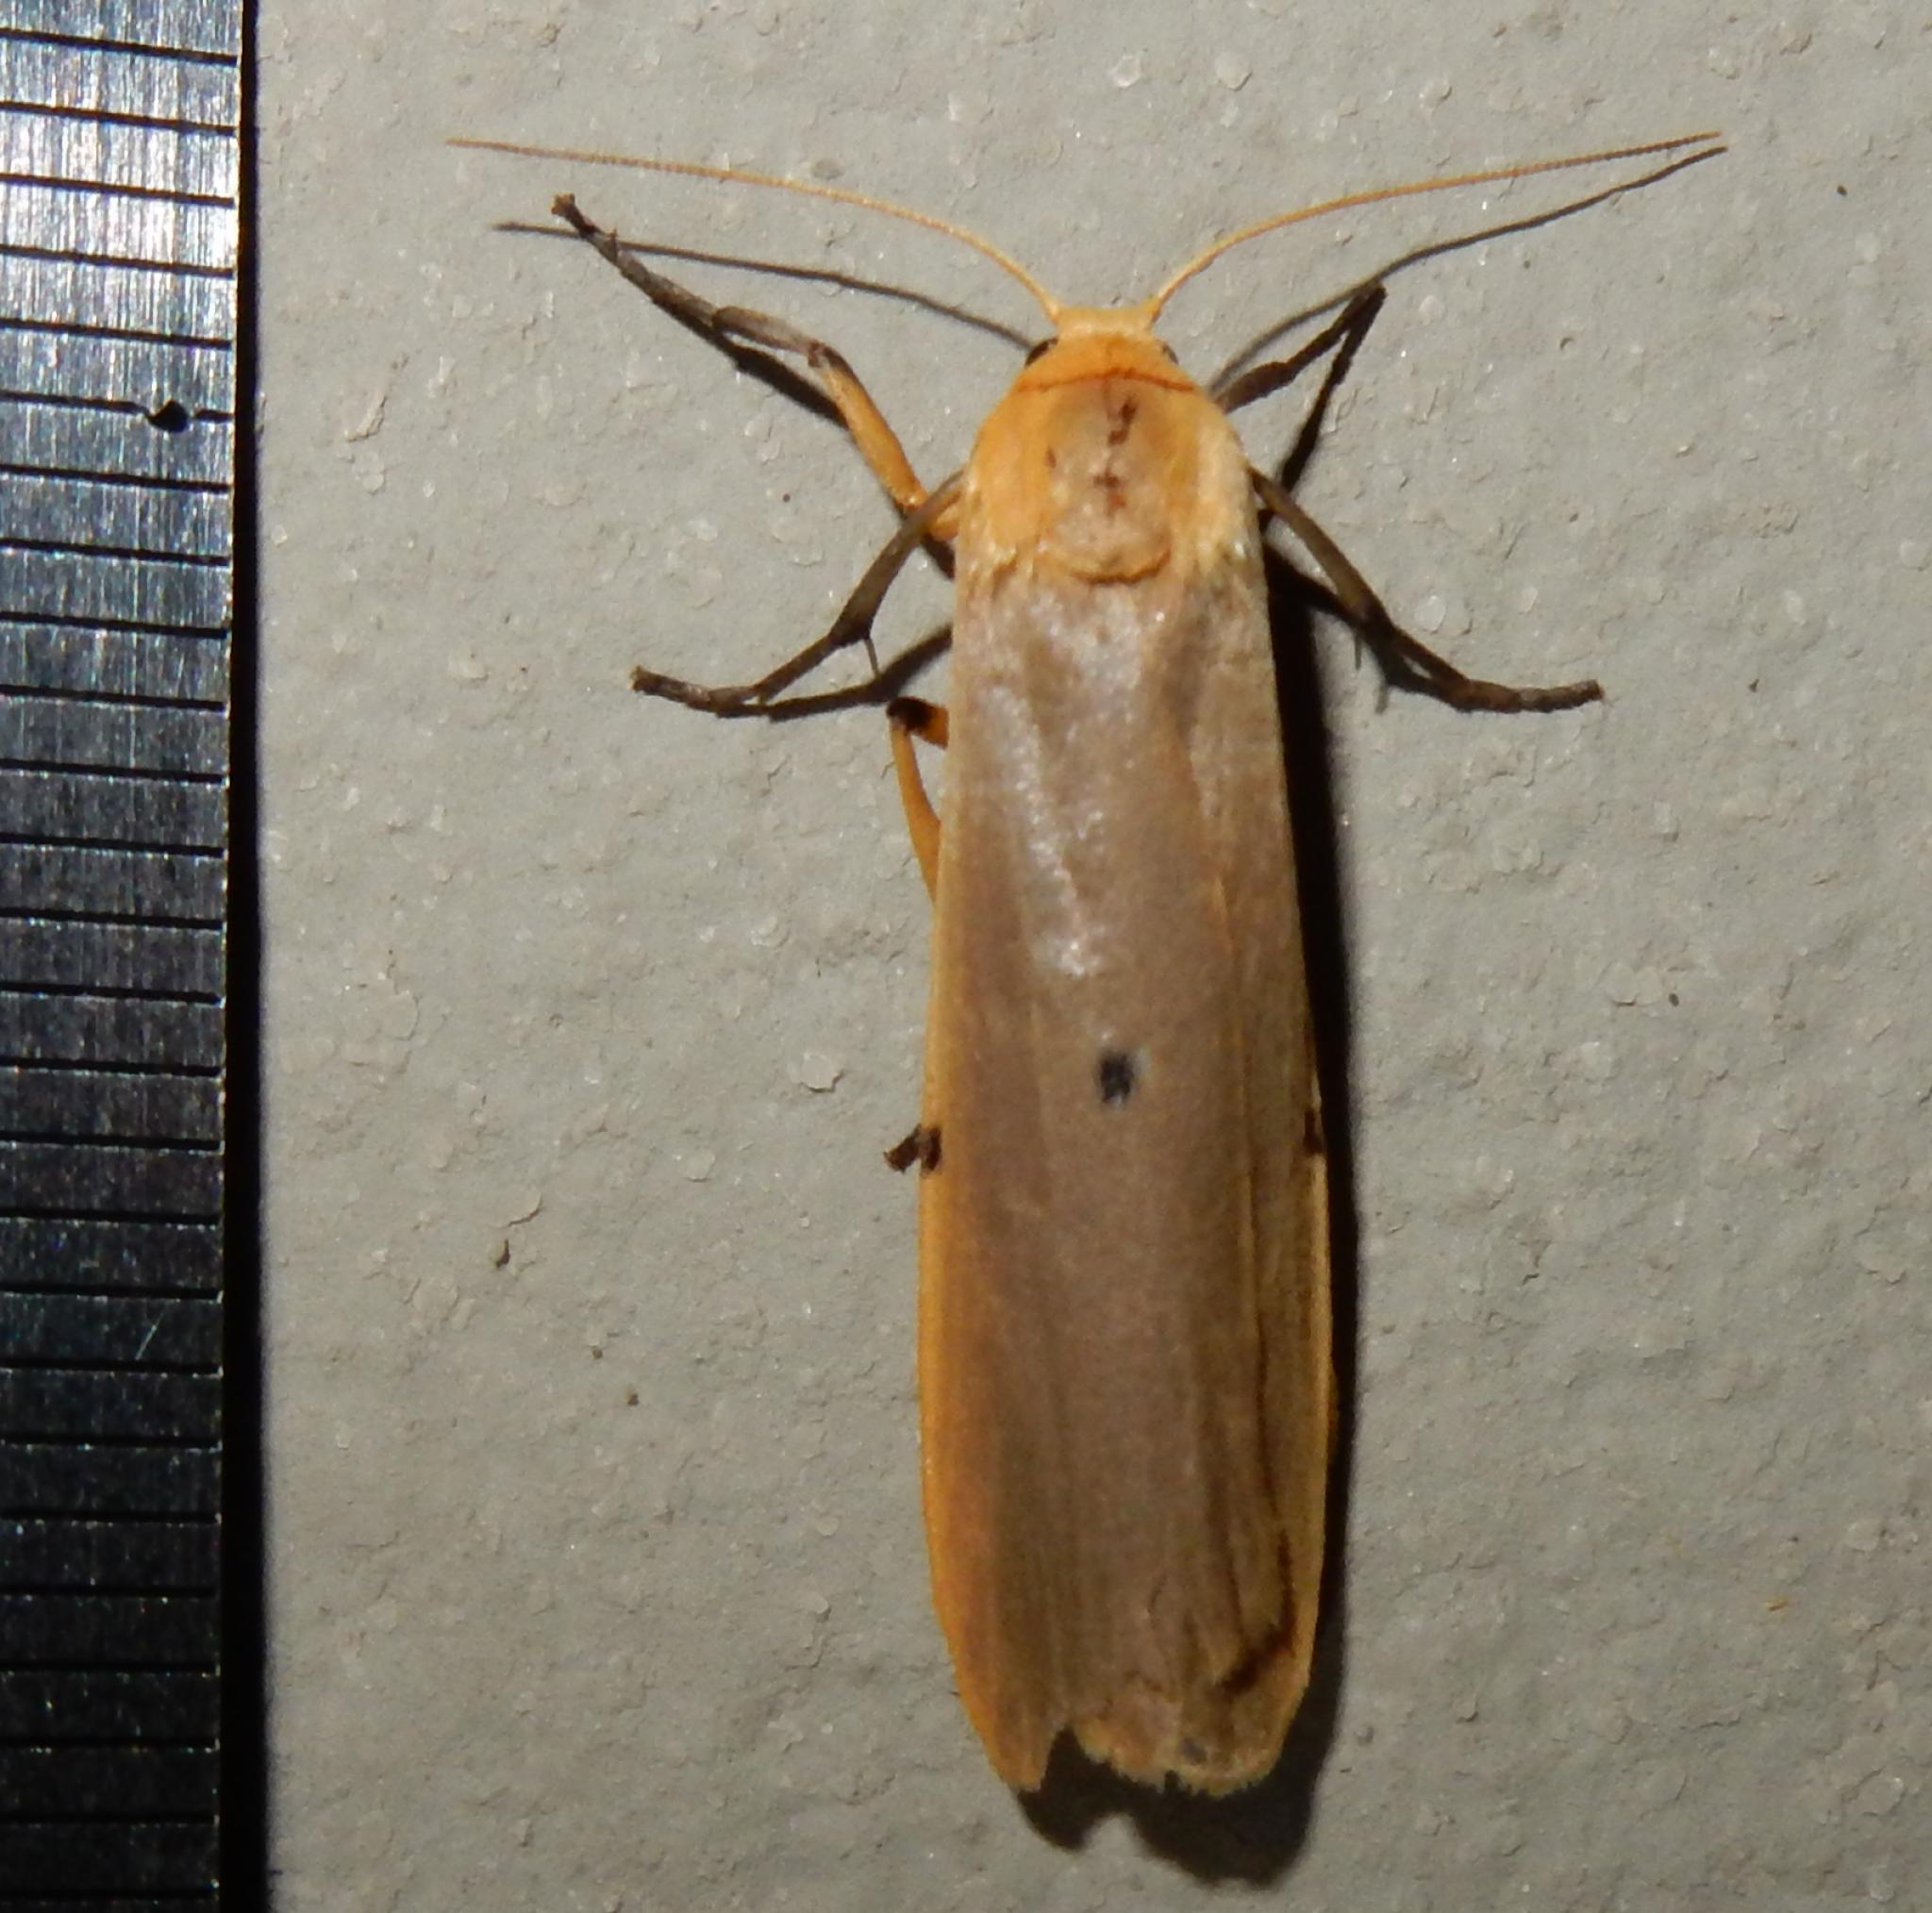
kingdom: Animalia
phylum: Arthropoda
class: Insecta
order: Lepidoptera
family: Erebidae
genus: Zobida
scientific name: Zobida similipuncta
